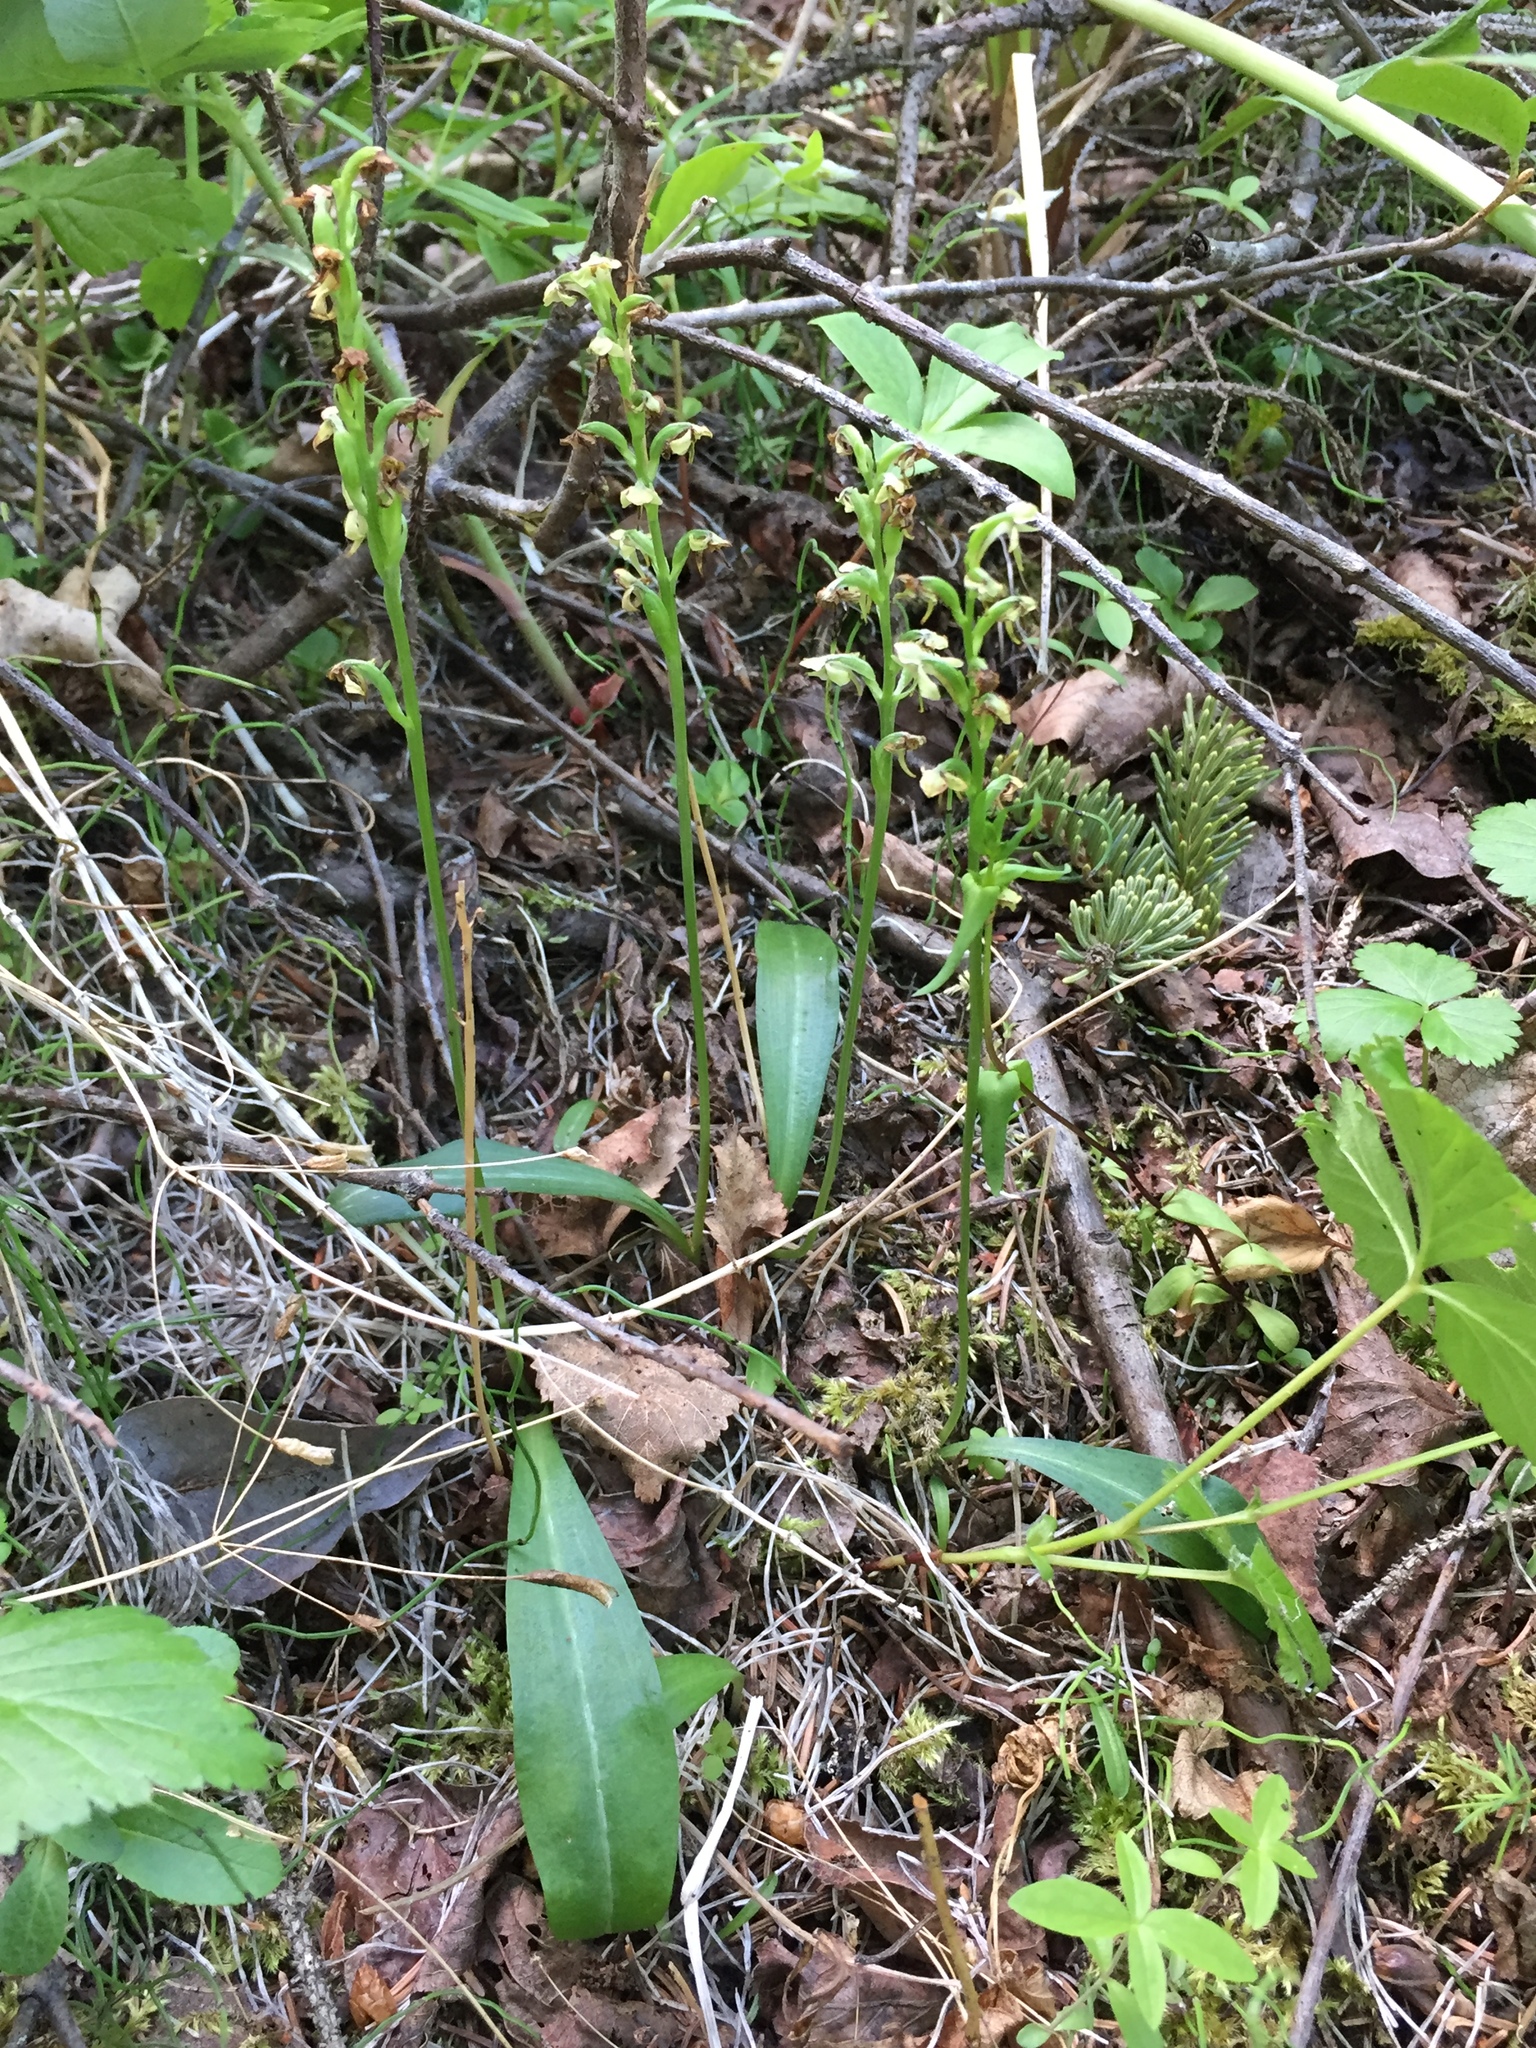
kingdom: Plantae
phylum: Tracheophyta
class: Liliopsida
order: Asparagales
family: Orchidaceae
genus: Platanthera
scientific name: Platanthera obtusata
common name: Blunt bog orchid
